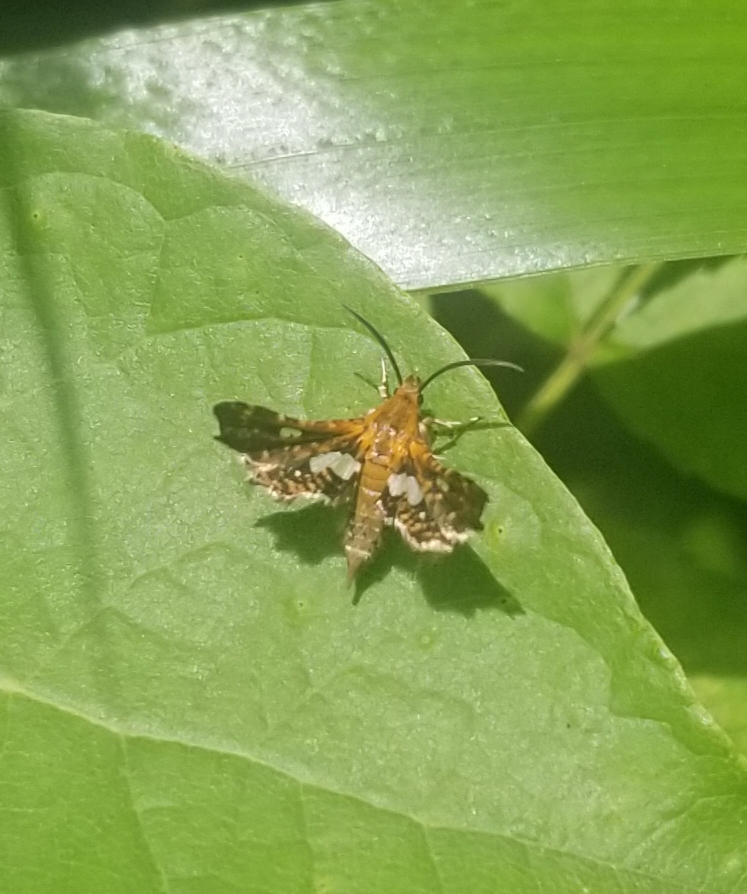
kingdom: Animalia
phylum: Arthropoda
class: Insecta
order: Lepidoptera
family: Thyrididae
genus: Thyris
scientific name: Thyris maculata
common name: Spotted thyris moth
